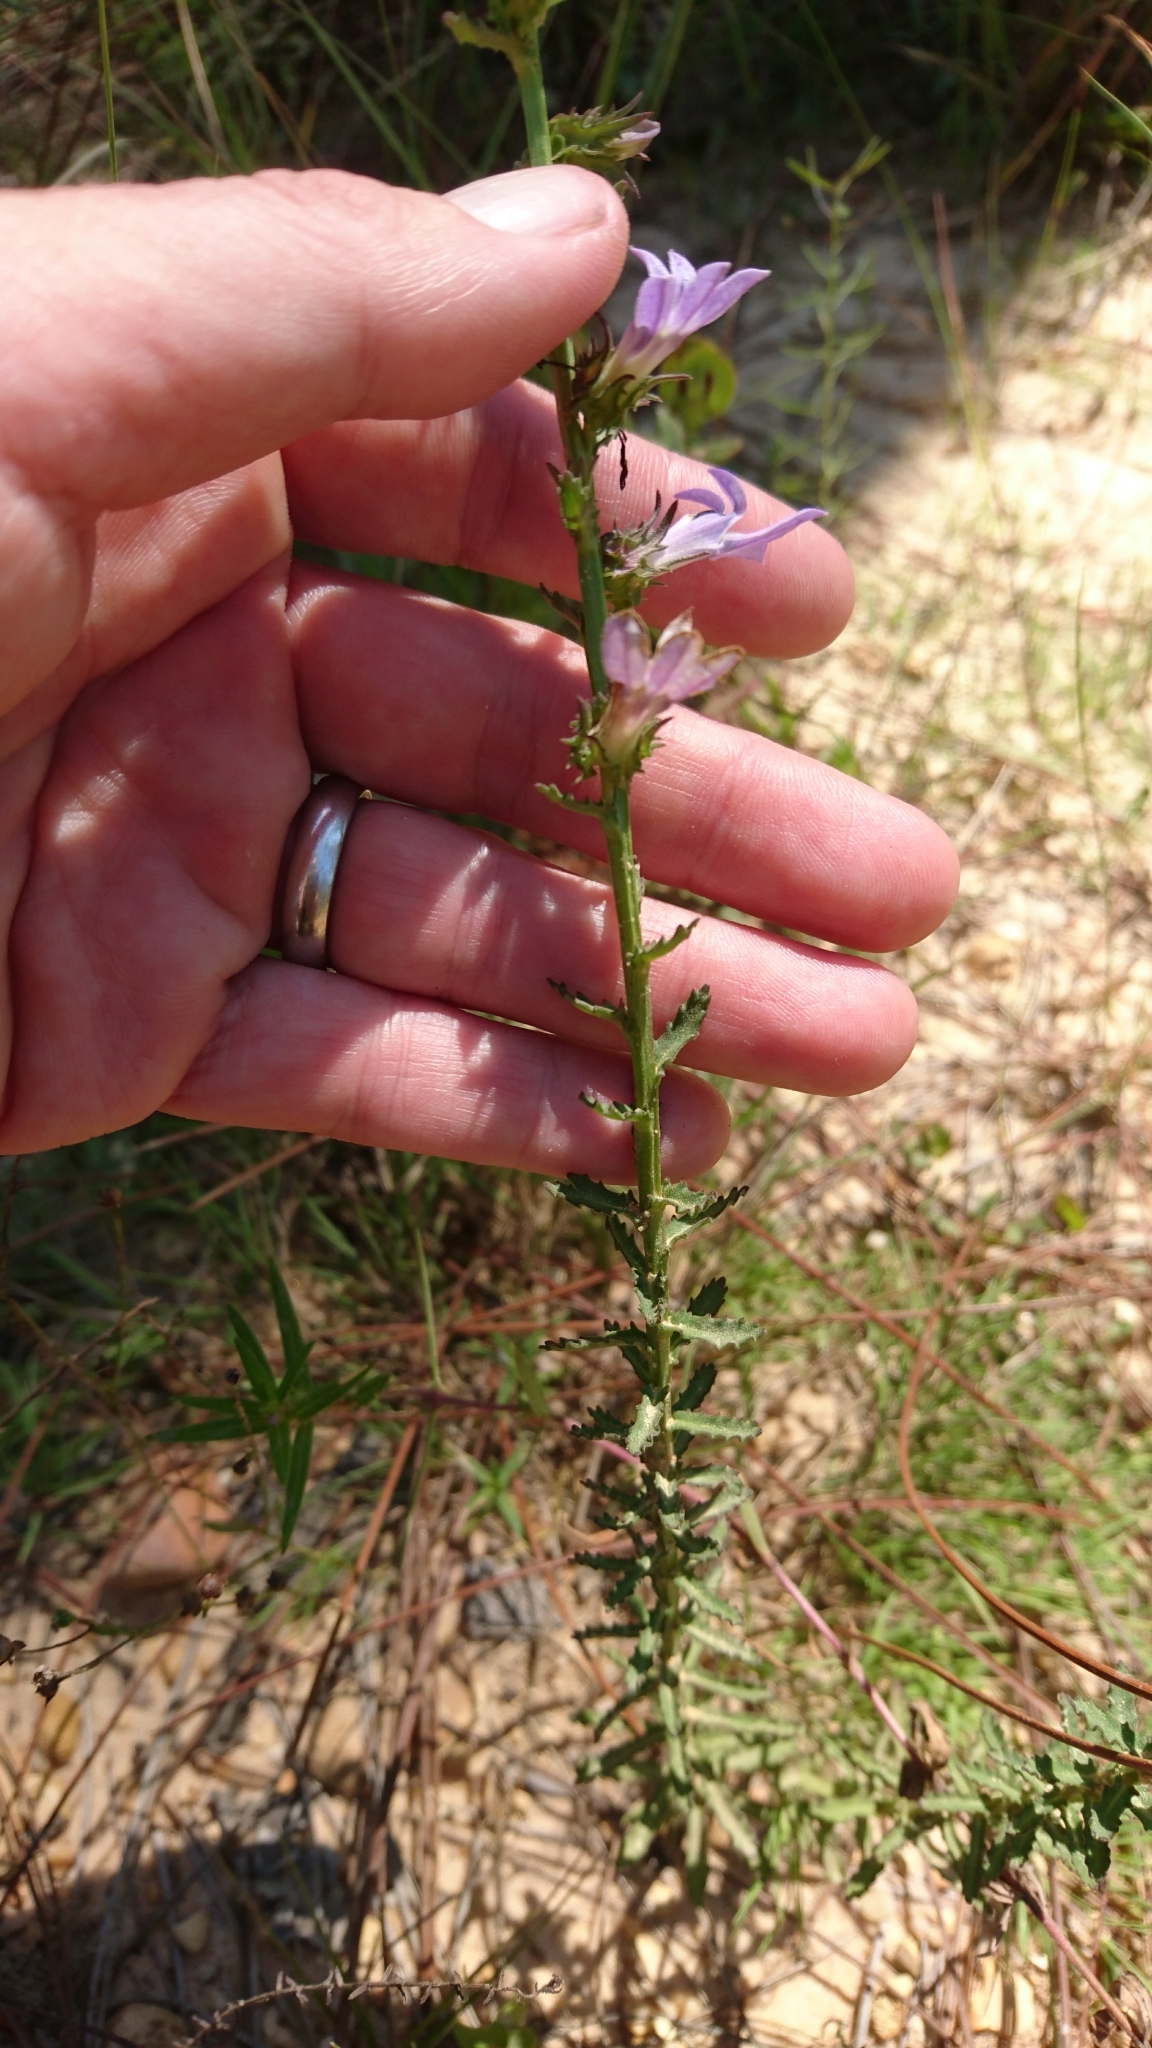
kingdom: Plantae
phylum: Tracheophyta
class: Magnoliopsida
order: Asterales
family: Campanulaceae
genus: Lobelia
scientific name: Lobelia brevifolia
